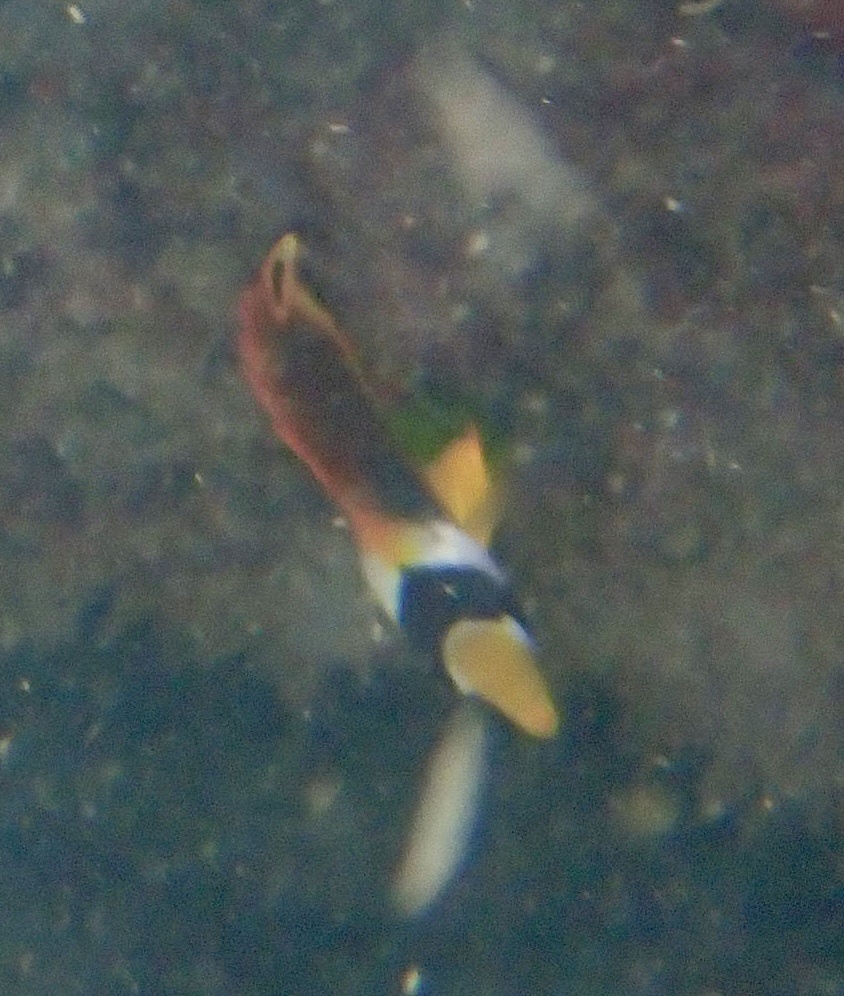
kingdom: Animalia
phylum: Chordata
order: Perciformes
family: Chaetodontidae
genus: Chaetodon
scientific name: Chaetodon lunula
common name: Raccoon butterflyfish
